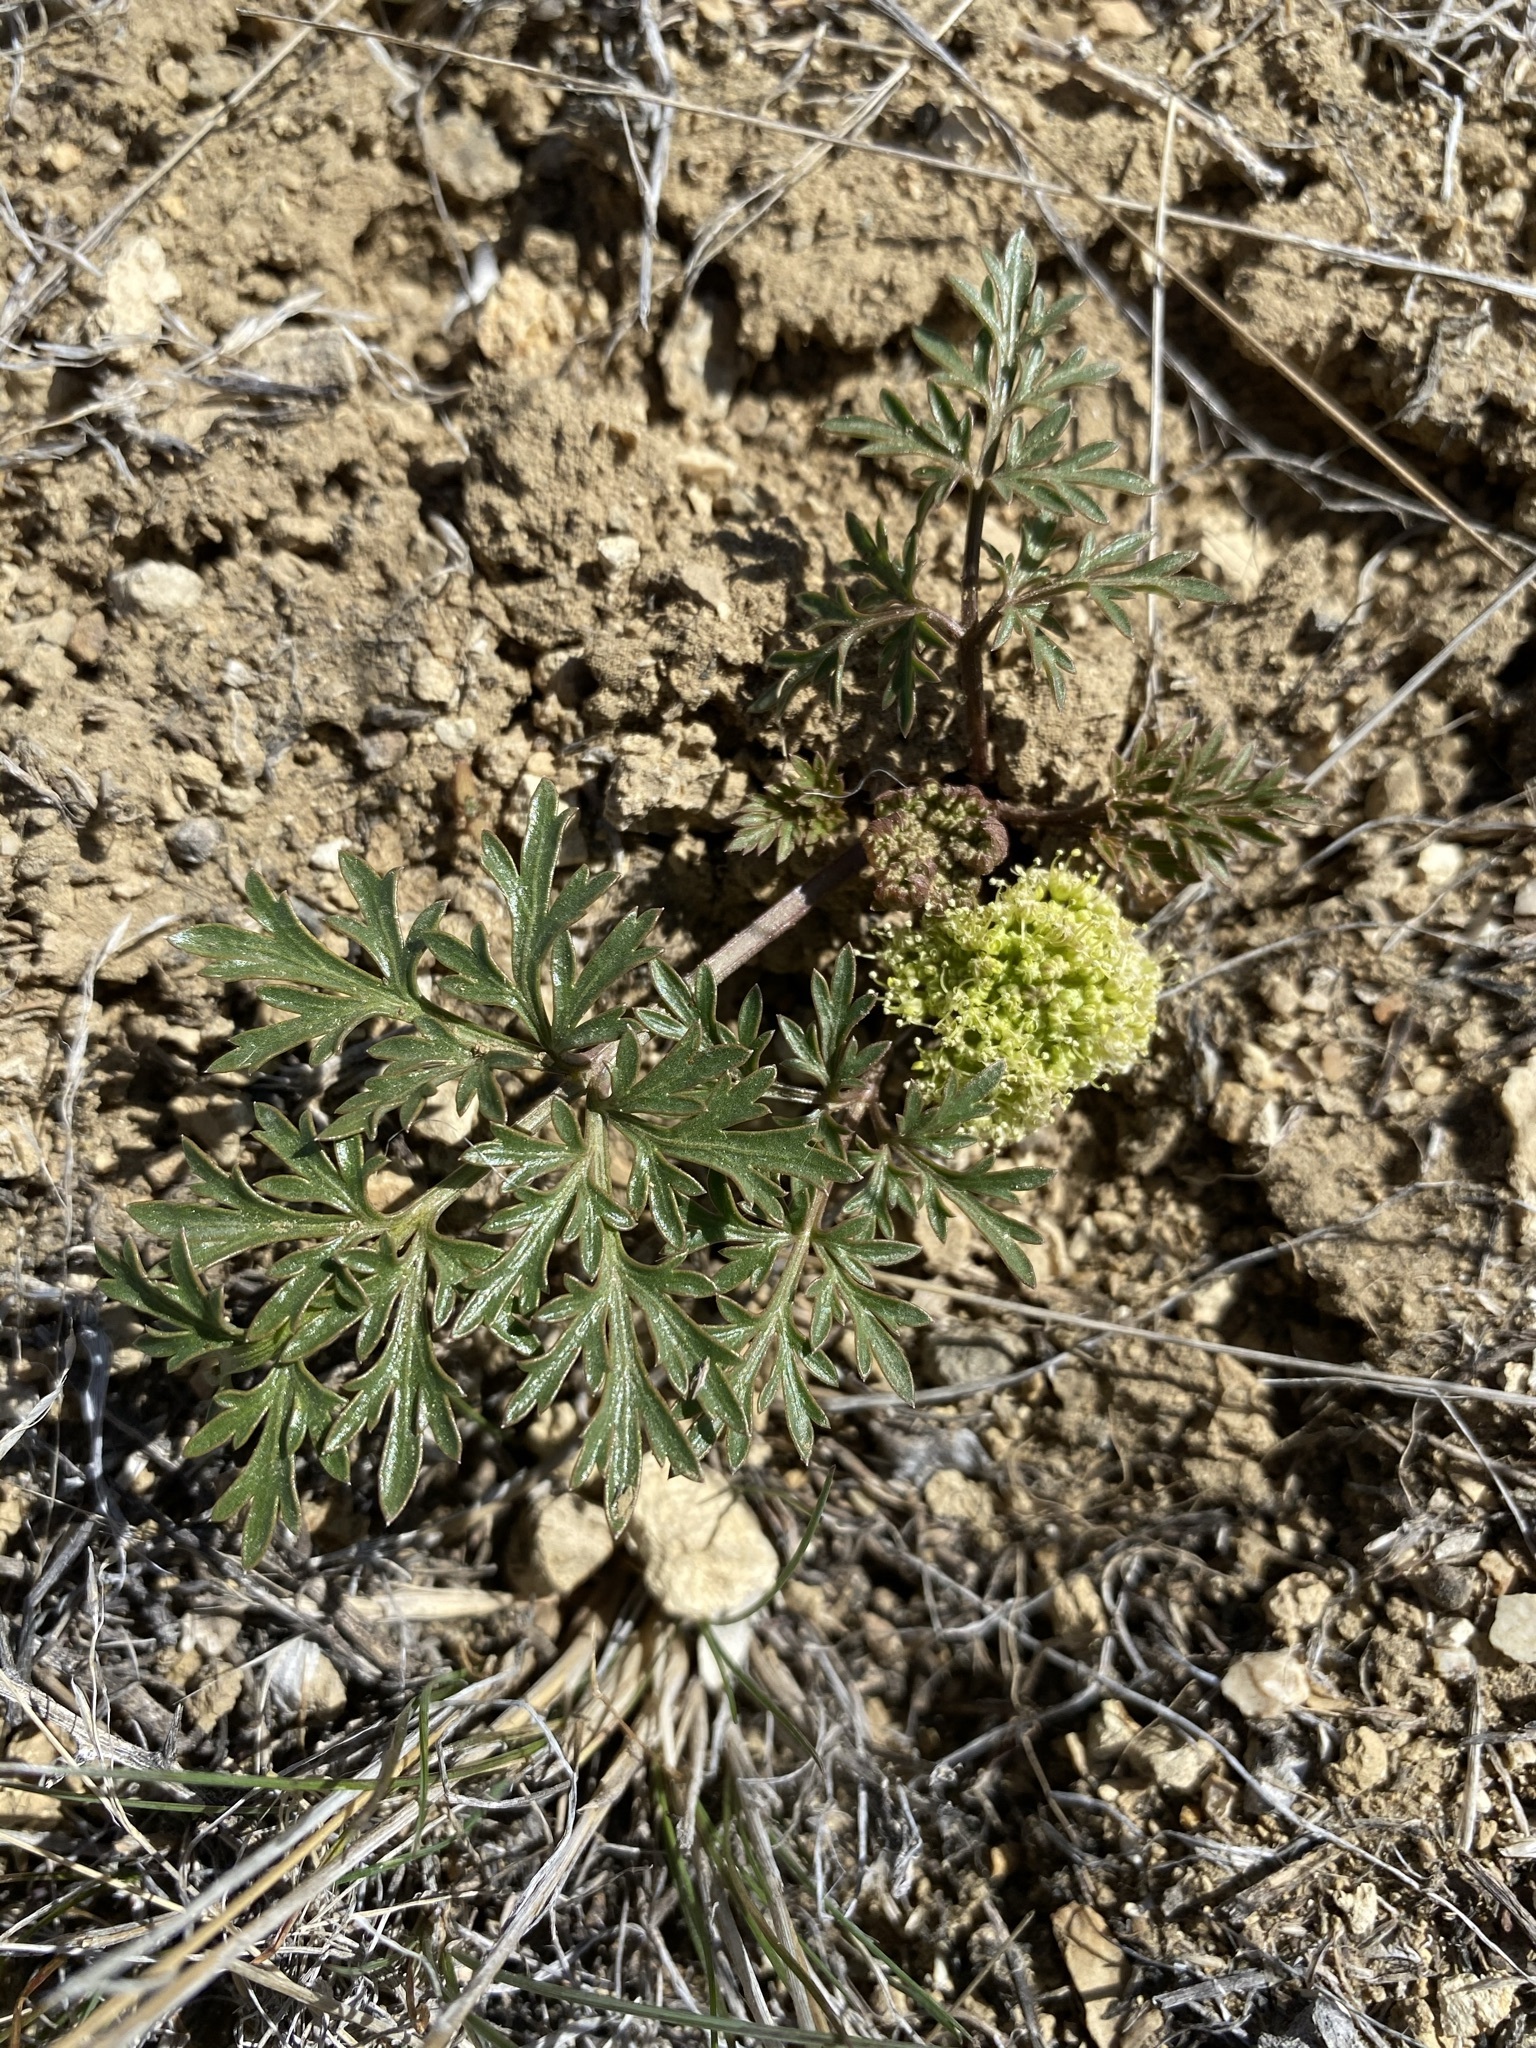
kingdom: Plantae
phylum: Tracheophyta
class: Magnoliopsida
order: Apiales
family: Apiaceae
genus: Cymopterus
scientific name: Cymopterus glomeratus
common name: Plains spring parsley
